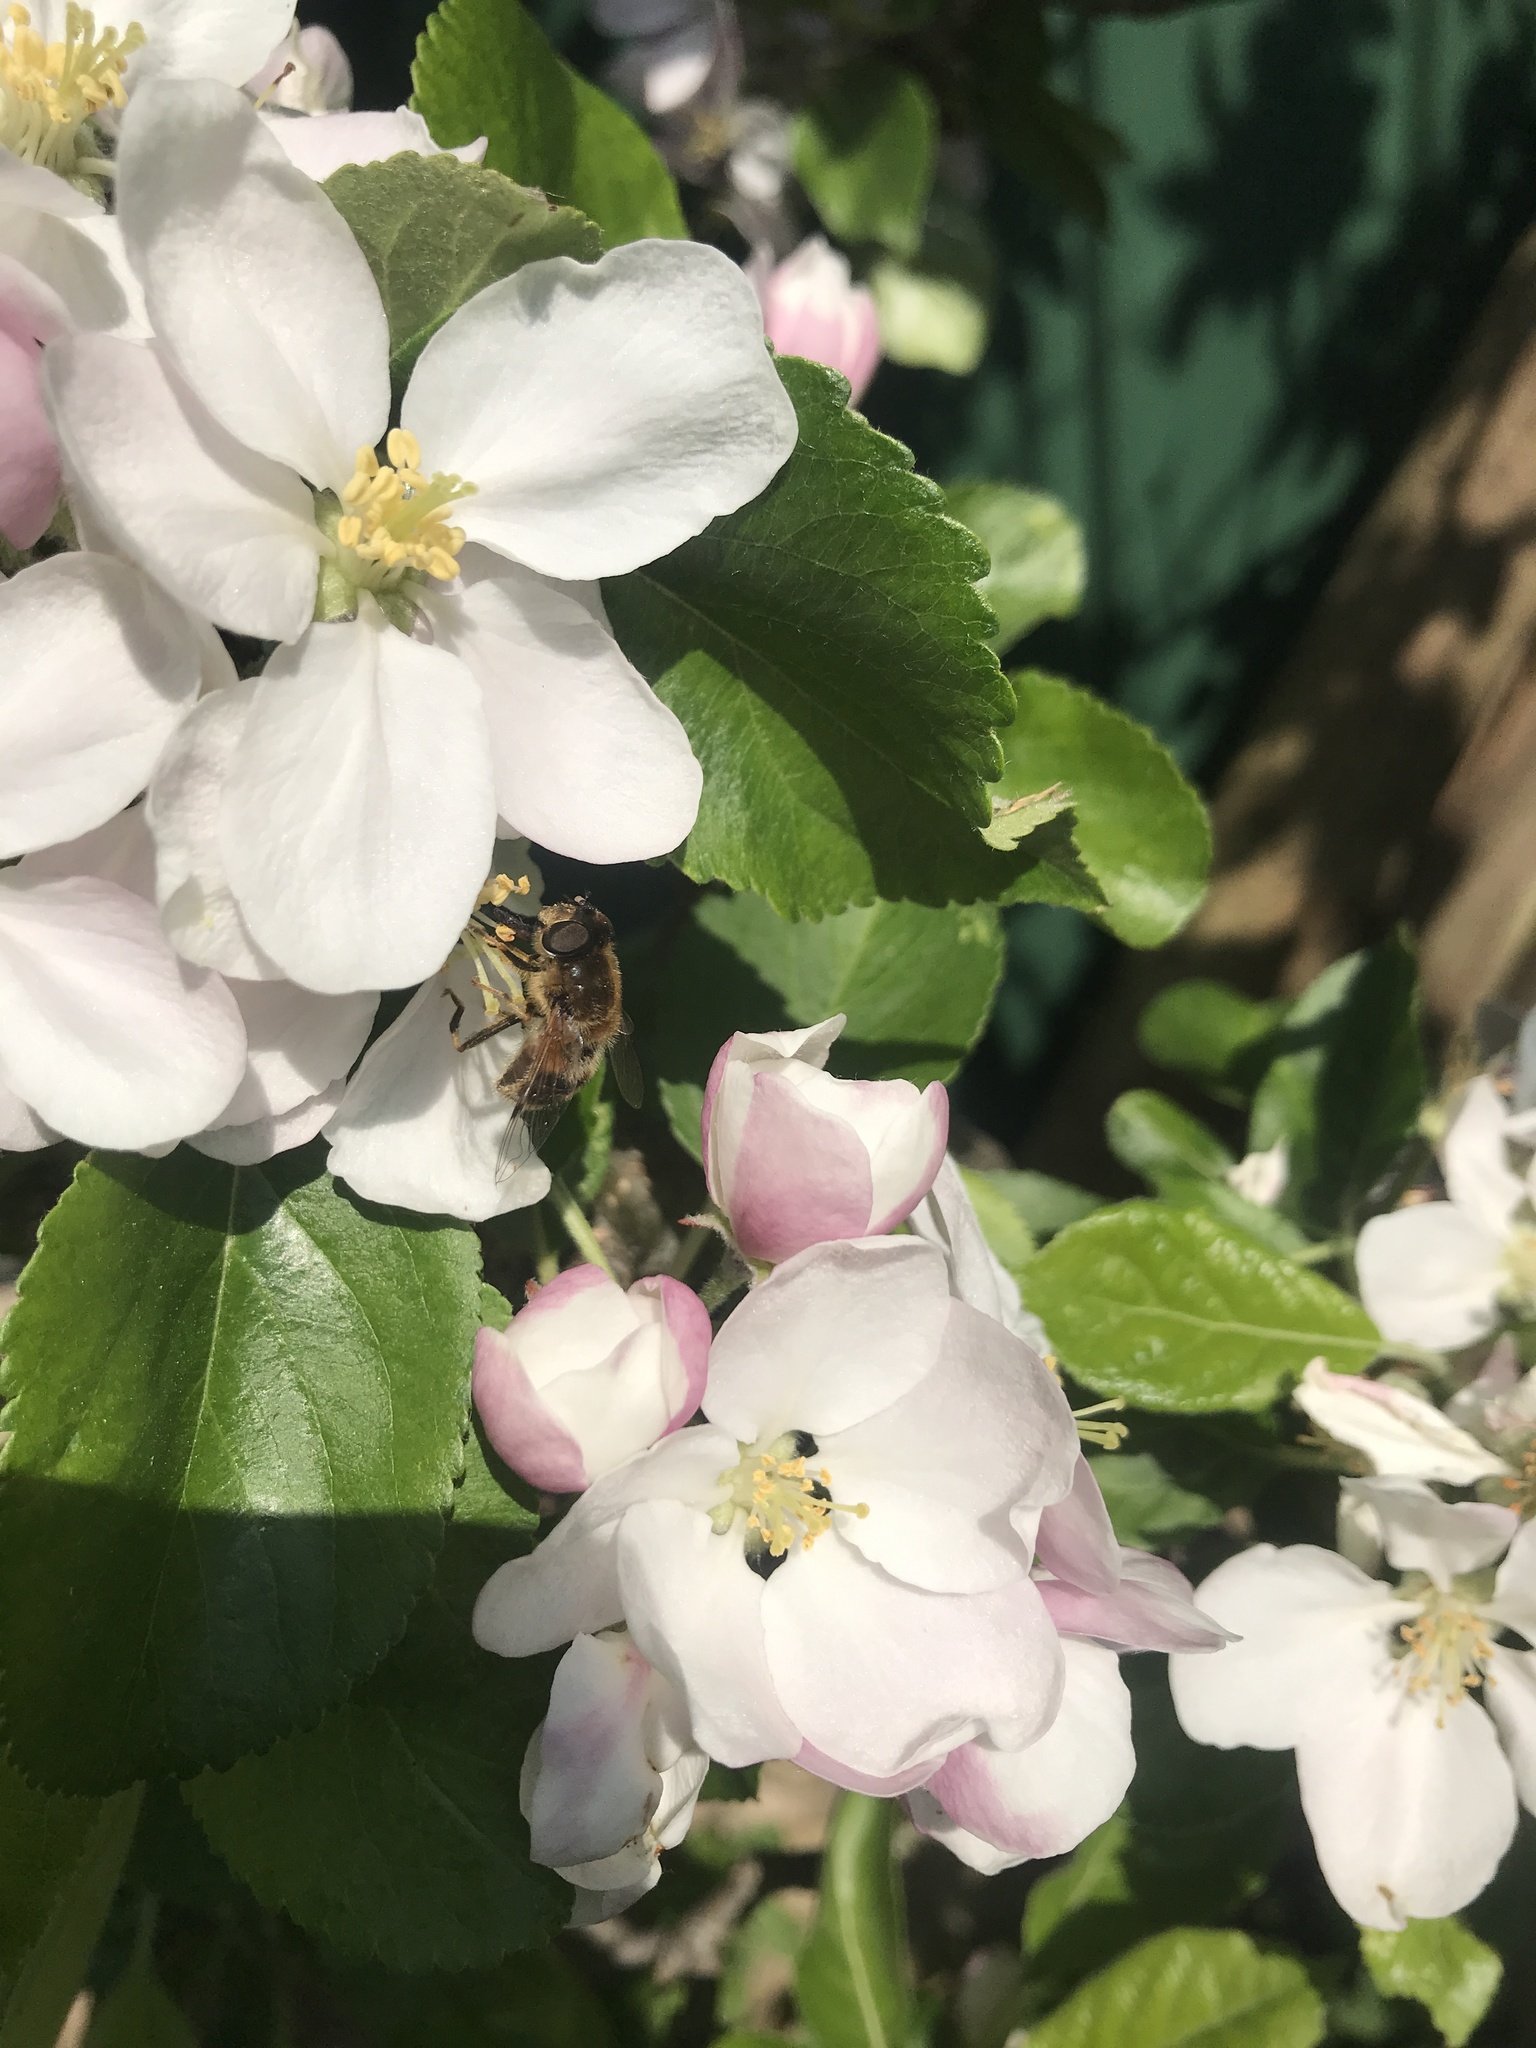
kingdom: Animalia
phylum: Arthropoda
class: Insecta
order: Diptera
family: Syrphidae
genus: Eristalis
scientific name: Eristalis pertinax
